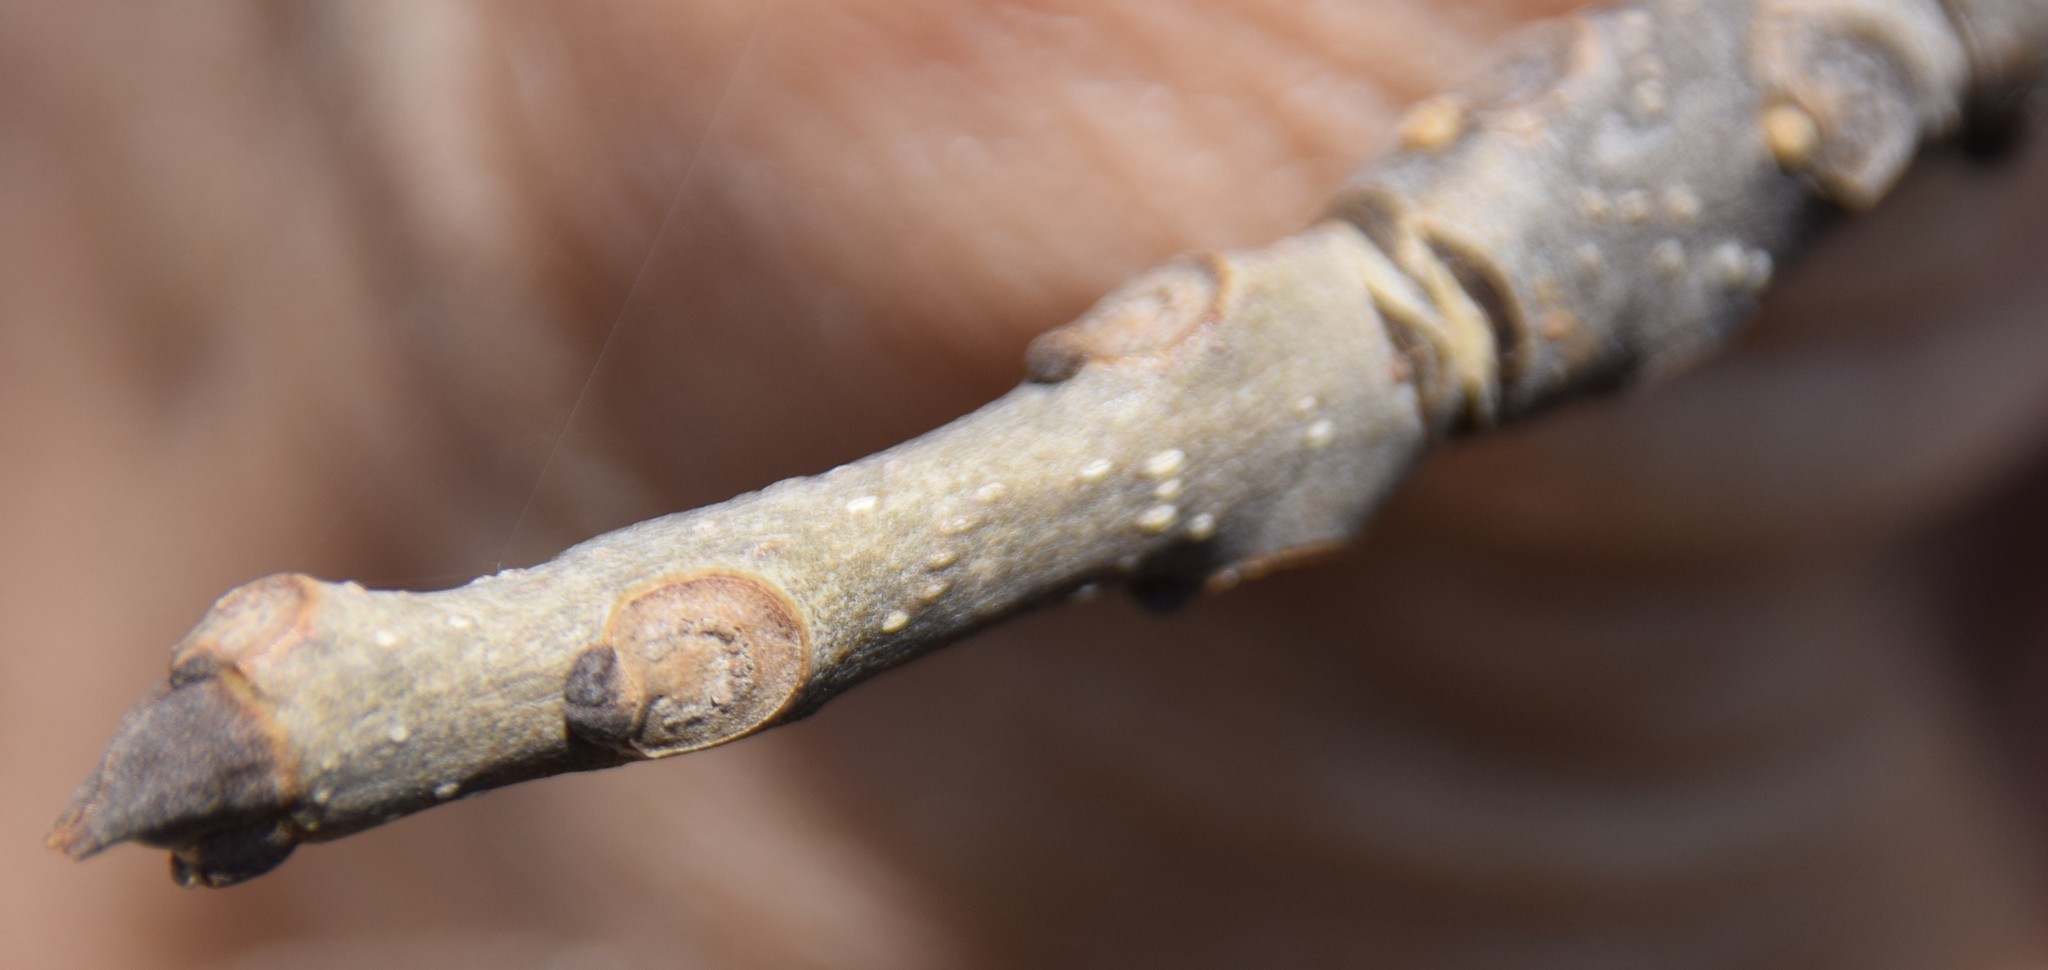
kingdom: Plantae
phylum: Tracheophyta
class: Magnoliopsida
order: Lamiales
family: Oleaceae
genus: Fraxinus
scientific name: Fraxinus nigra
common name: Black ash
